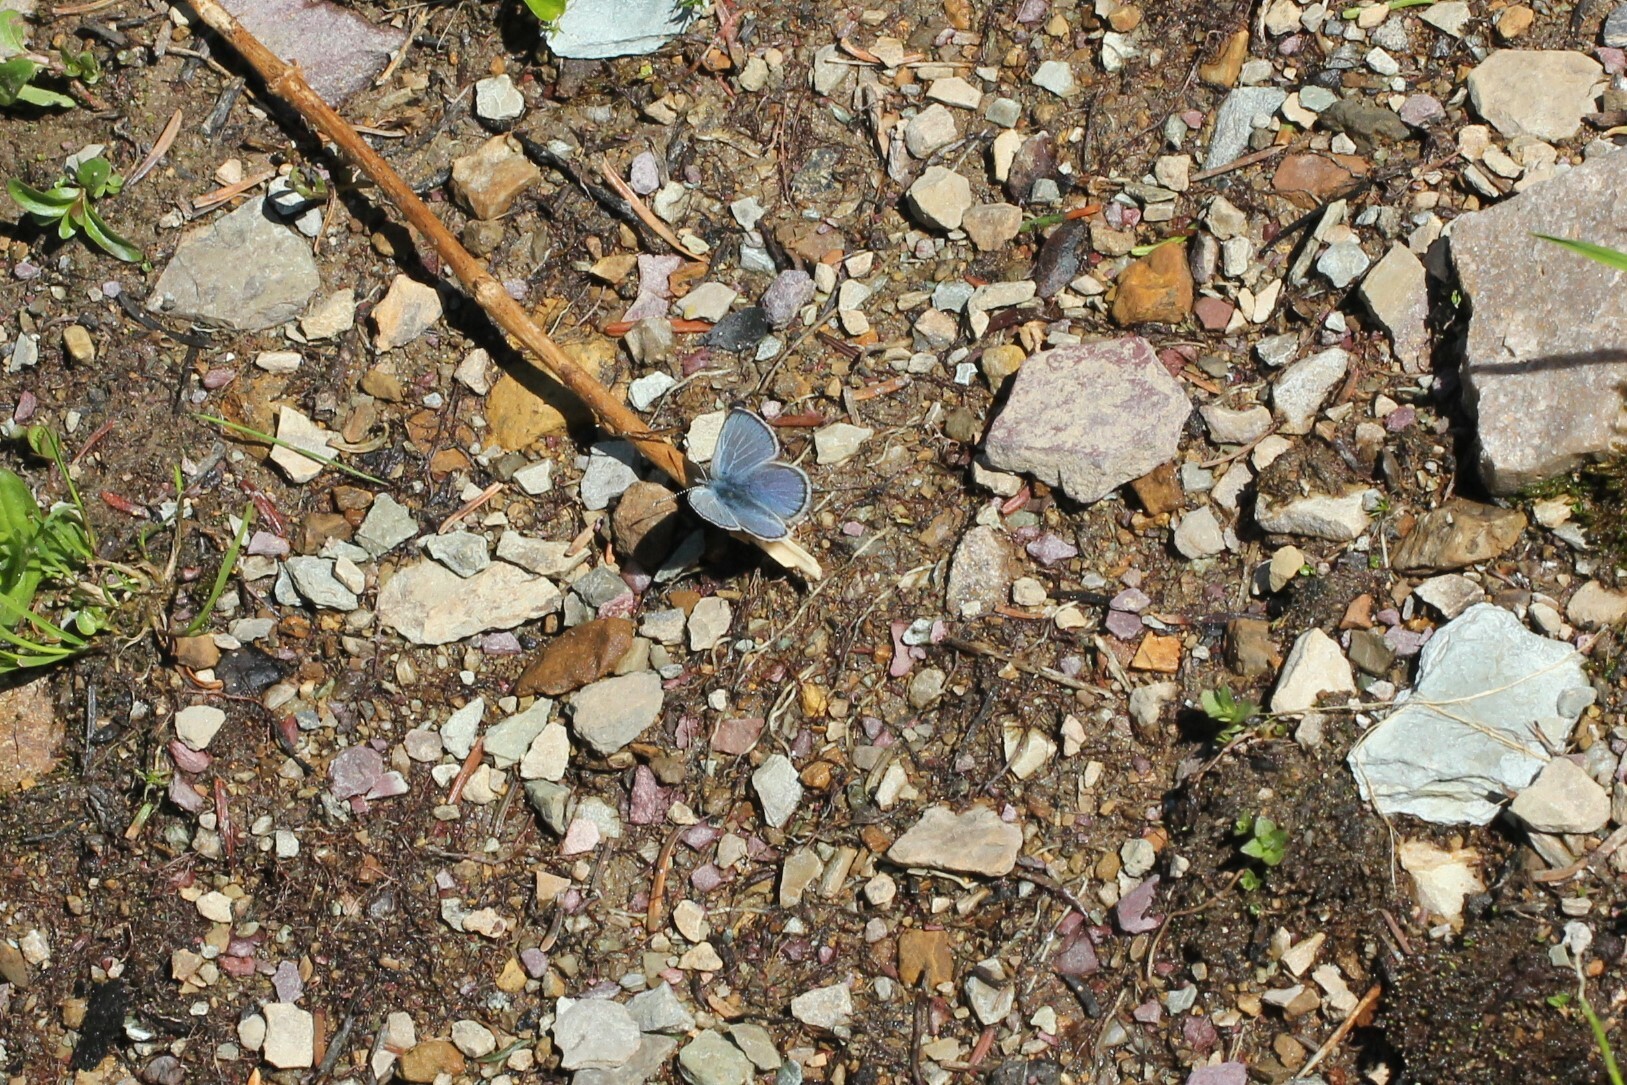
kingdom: Animalia
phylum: Arthropoda
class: Insecta
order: Lepidoptera
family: Lycaenidae
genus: Glaucopsyche
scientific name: Glaucopsyche lygdamus
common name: Silvery blue
